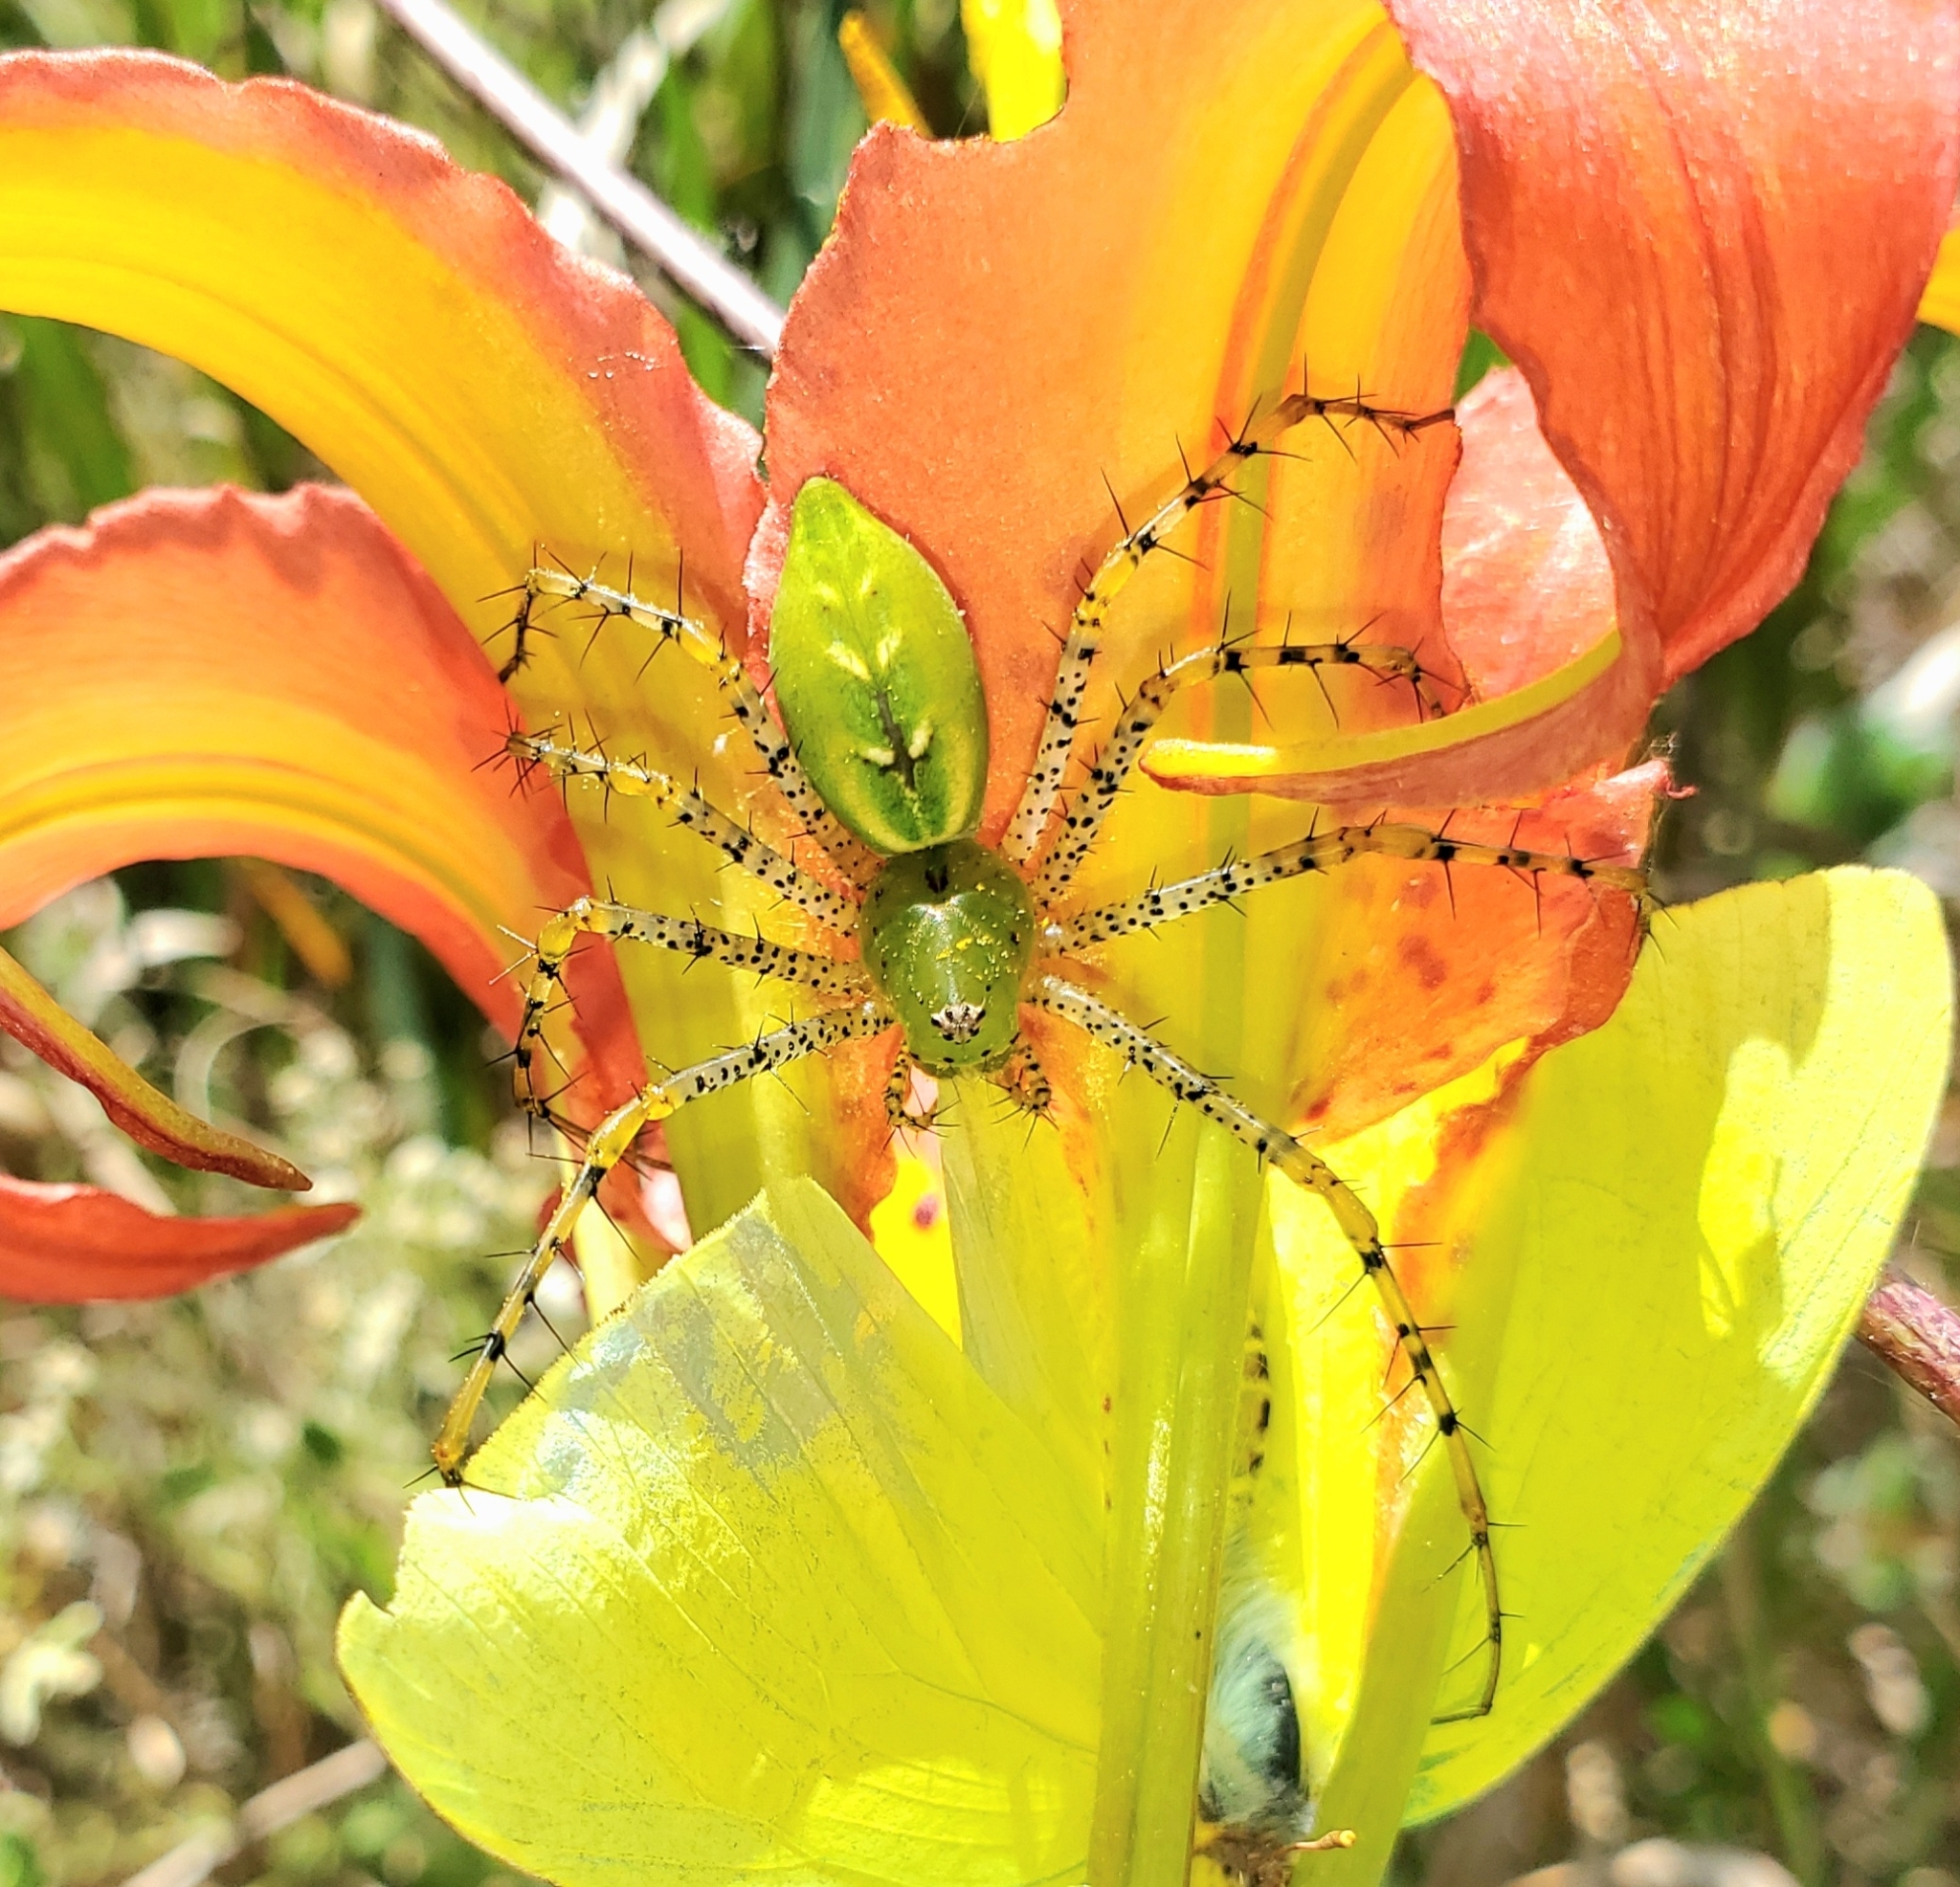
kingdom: Animalia
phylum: Arthropoda
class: Arachnida
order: Araneae
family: Oxyopidae
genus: Peucetia
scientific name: Peucetia viridans
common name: Lynx spiders
